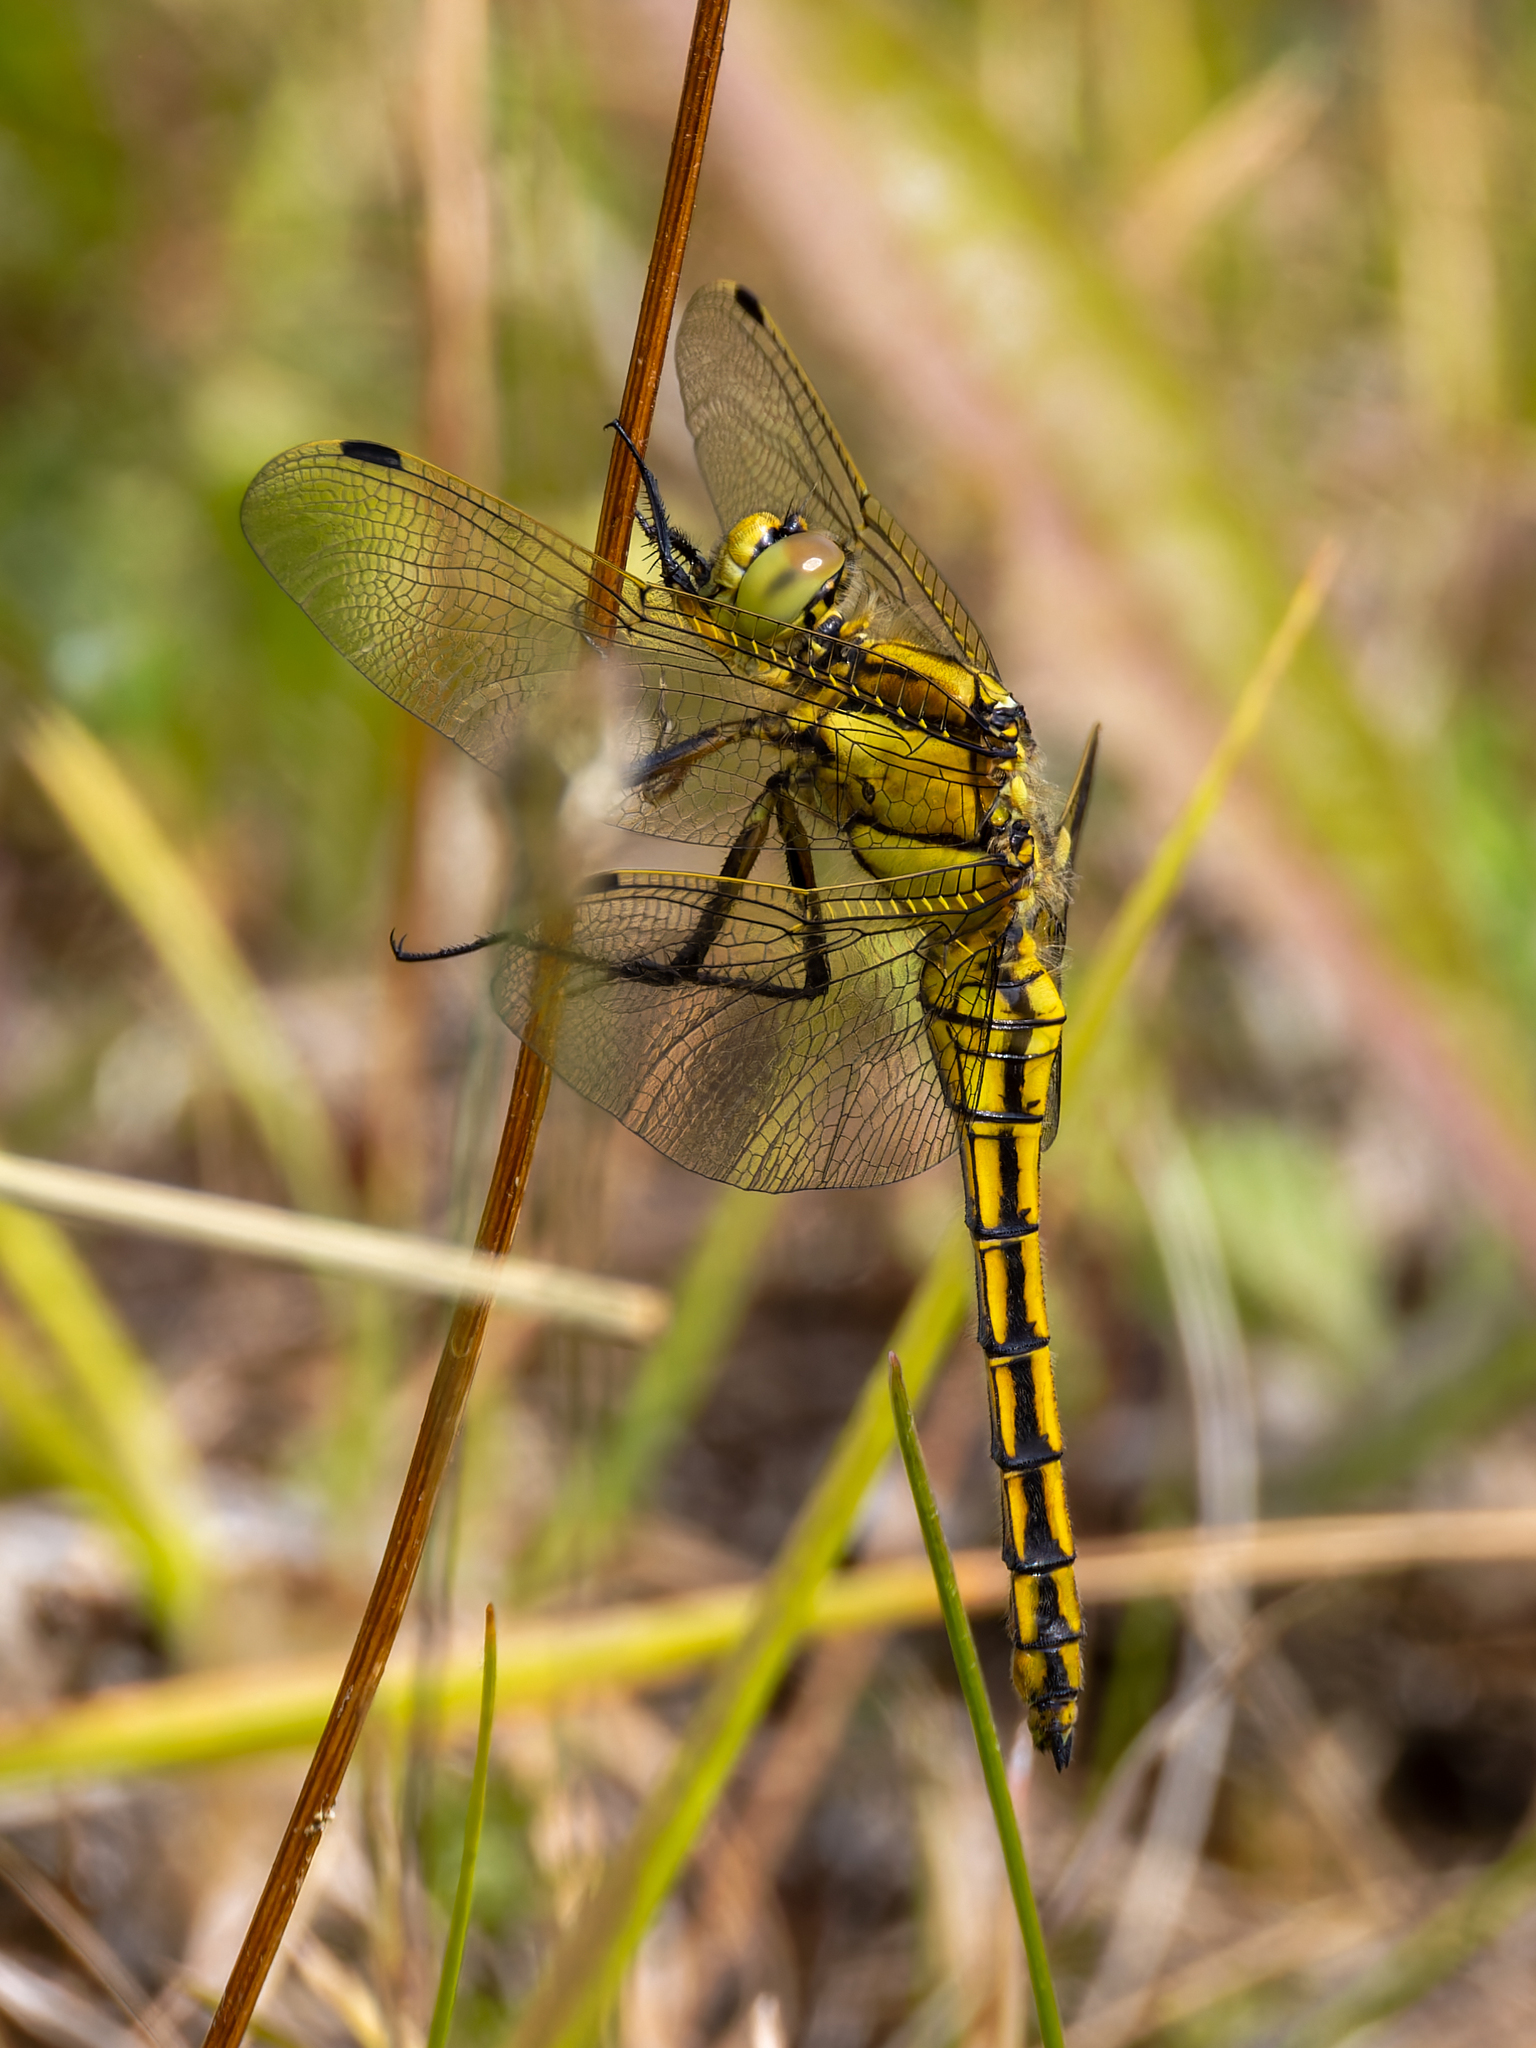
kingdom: Animalia
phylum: Arthropoda
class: Insecta
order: Odonata
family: Libellulidae
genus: Orthetrum
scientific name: Orthetrum cancellatum
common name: Black-tailed skimmer
